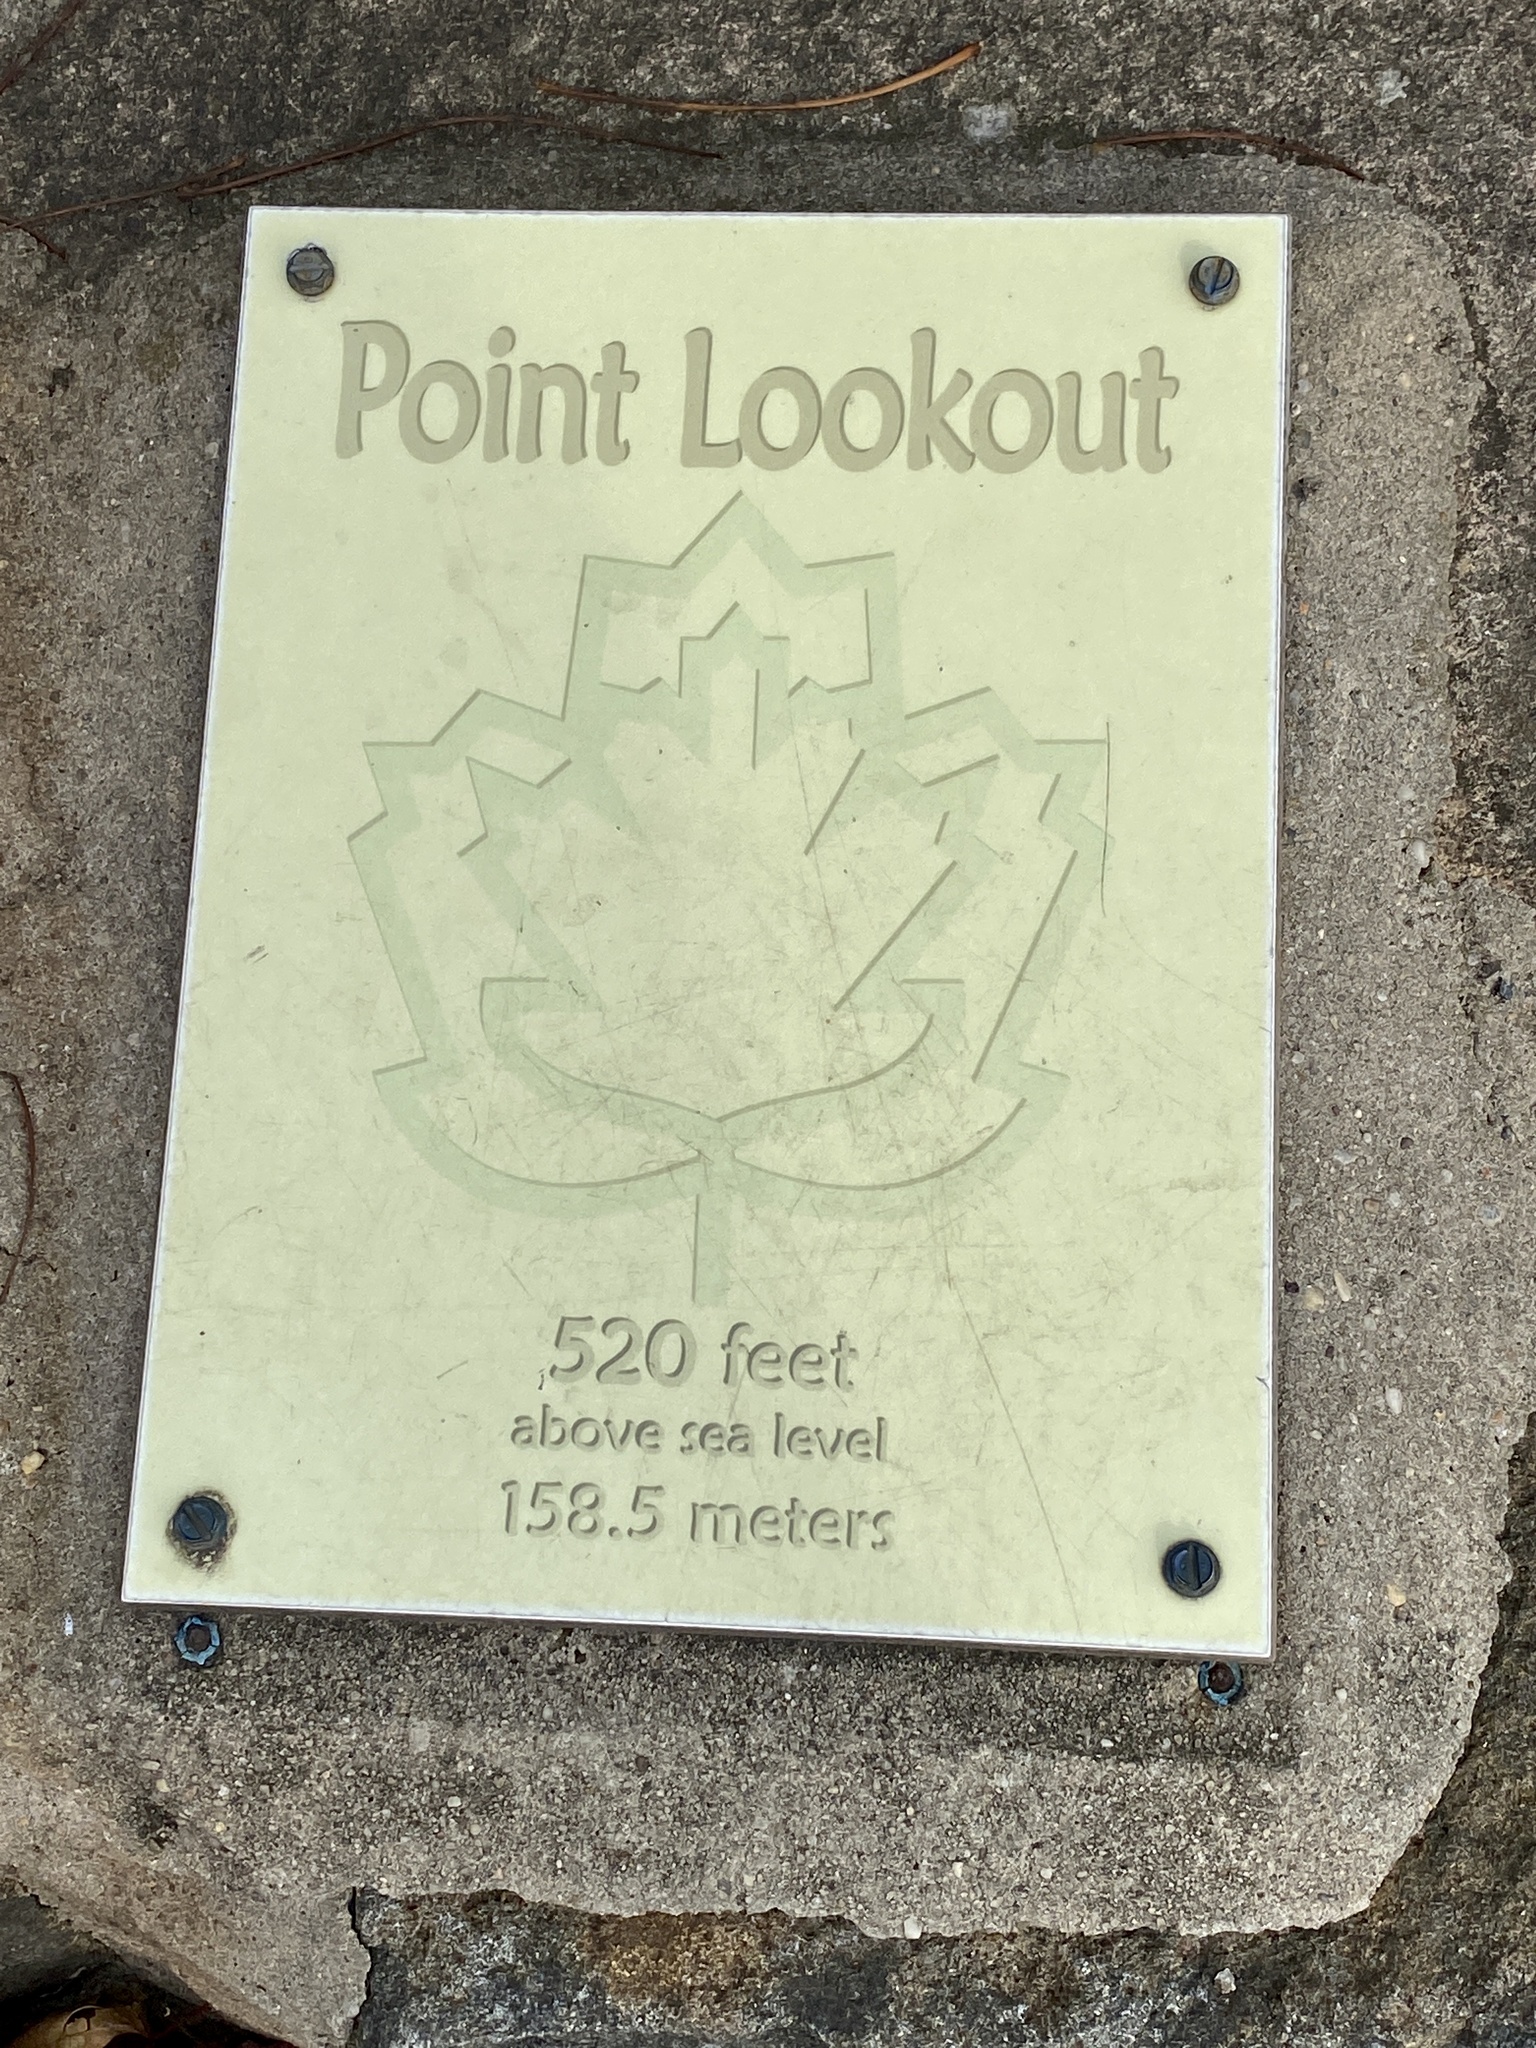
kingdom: Plantae
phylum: Tracheophyta
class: Magnoliopsida
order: Brassicales
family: Brassicaceae
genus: Arabidopsis
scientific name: Arabidopsis lyrata
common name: Lyrate rockcress
